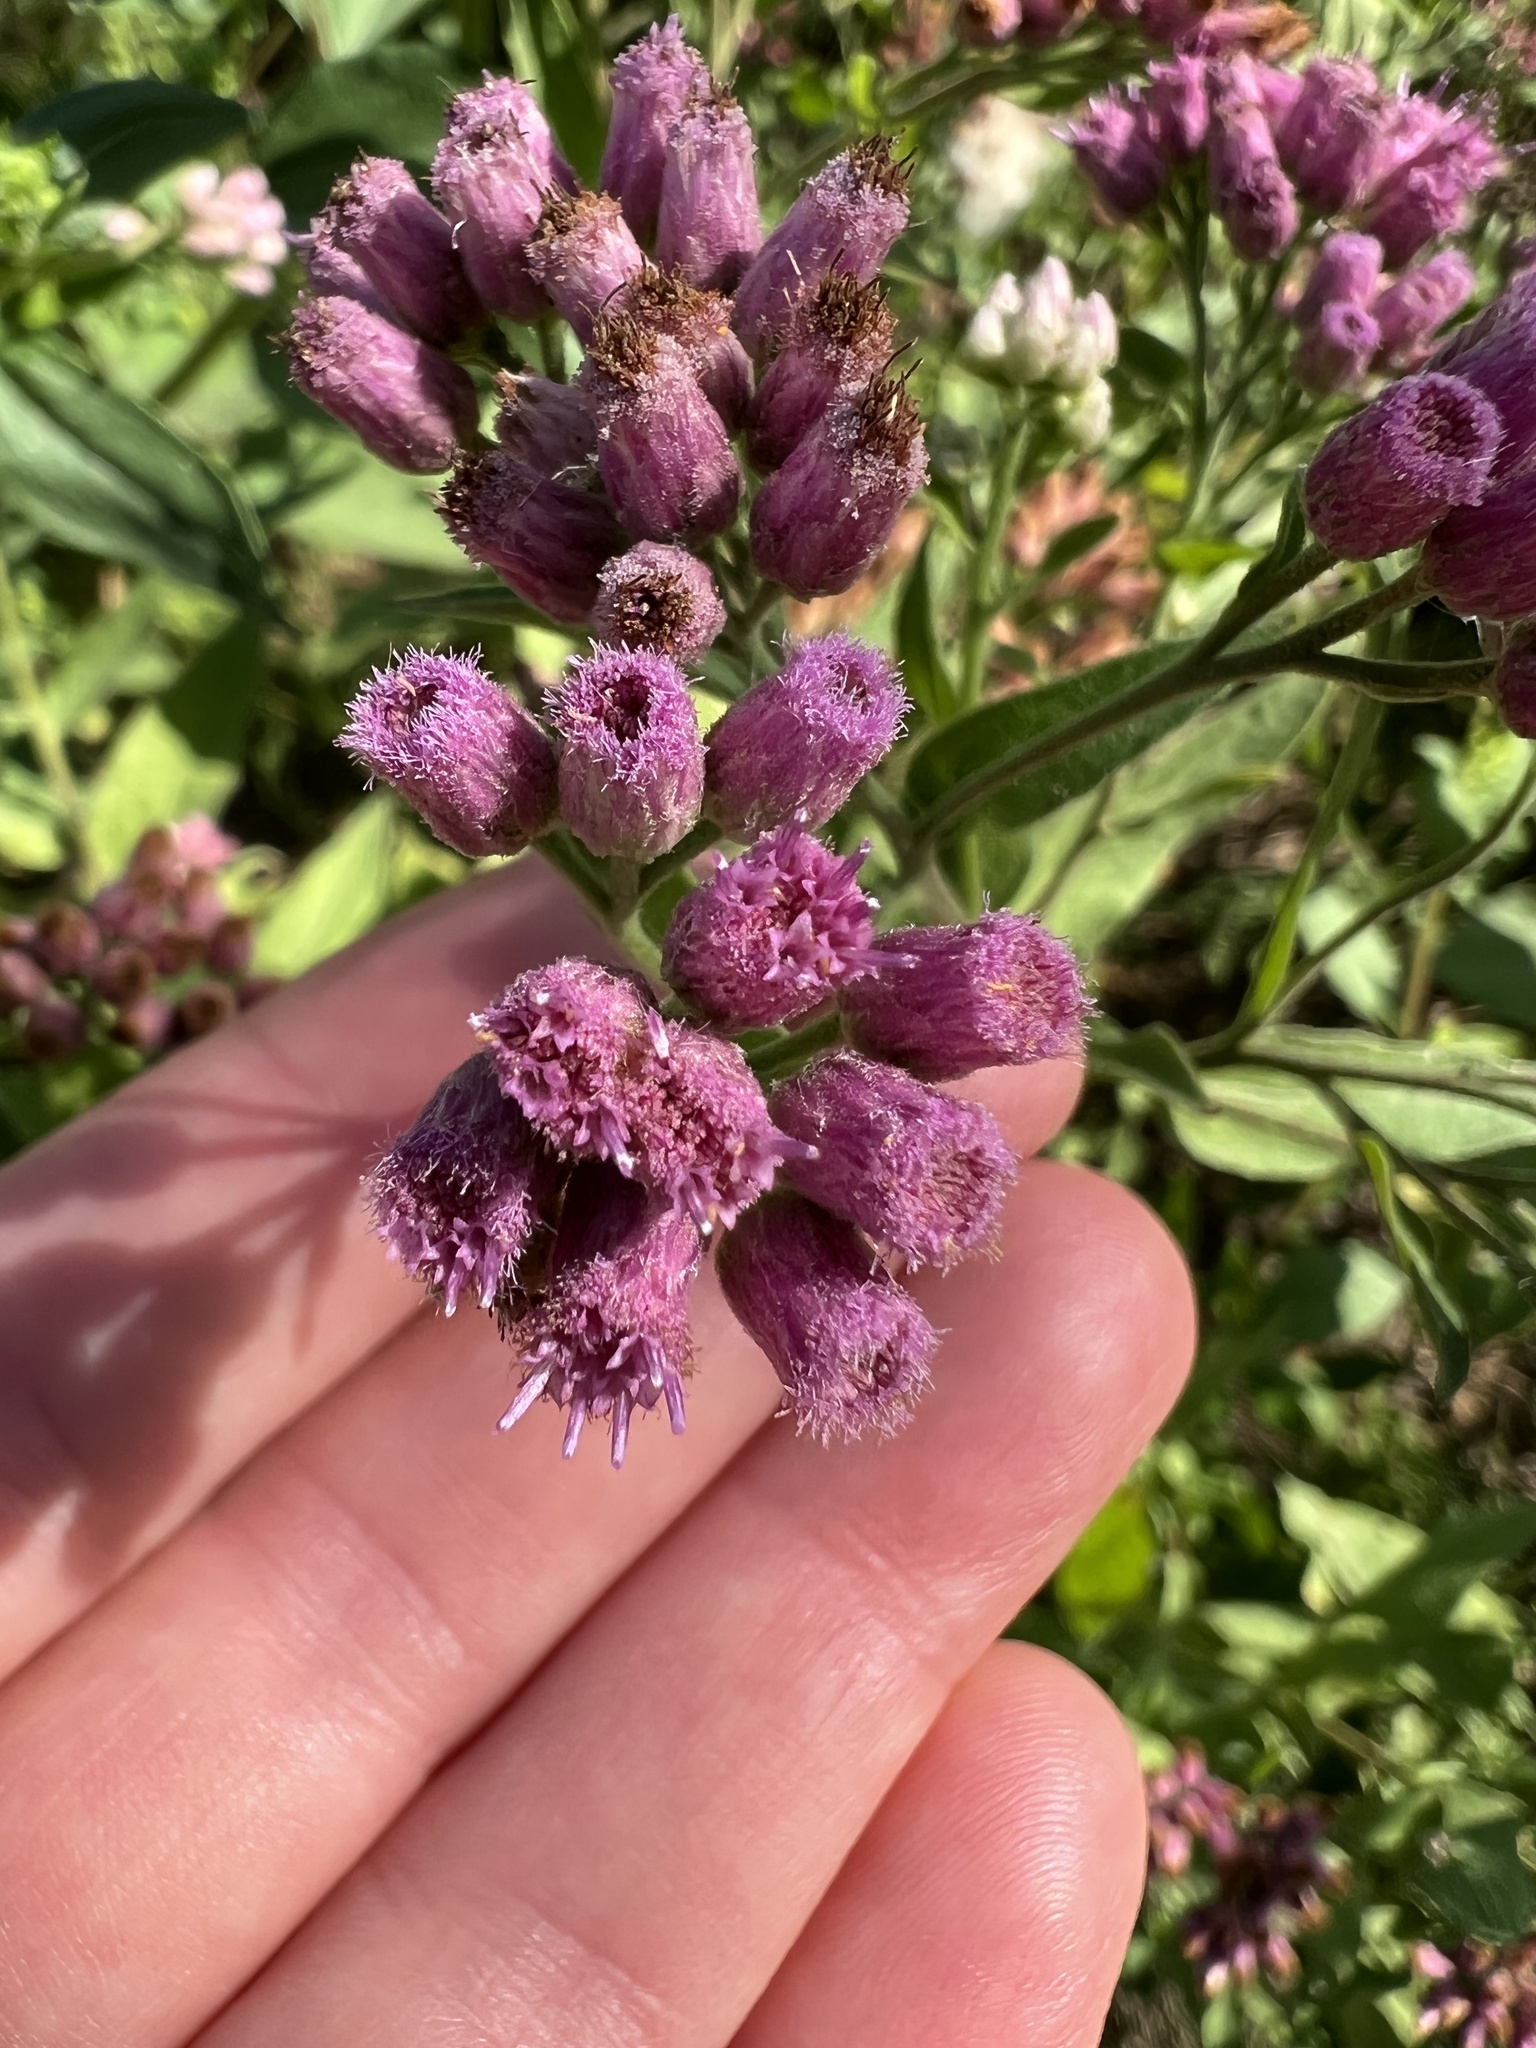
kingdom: Plantae
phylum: Tracheophyta
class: Magnoliopsida
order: Asterales
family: Asteraceae
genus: Pluchea
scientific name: Pluchea odorata
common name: Saltmarsh fleabane
